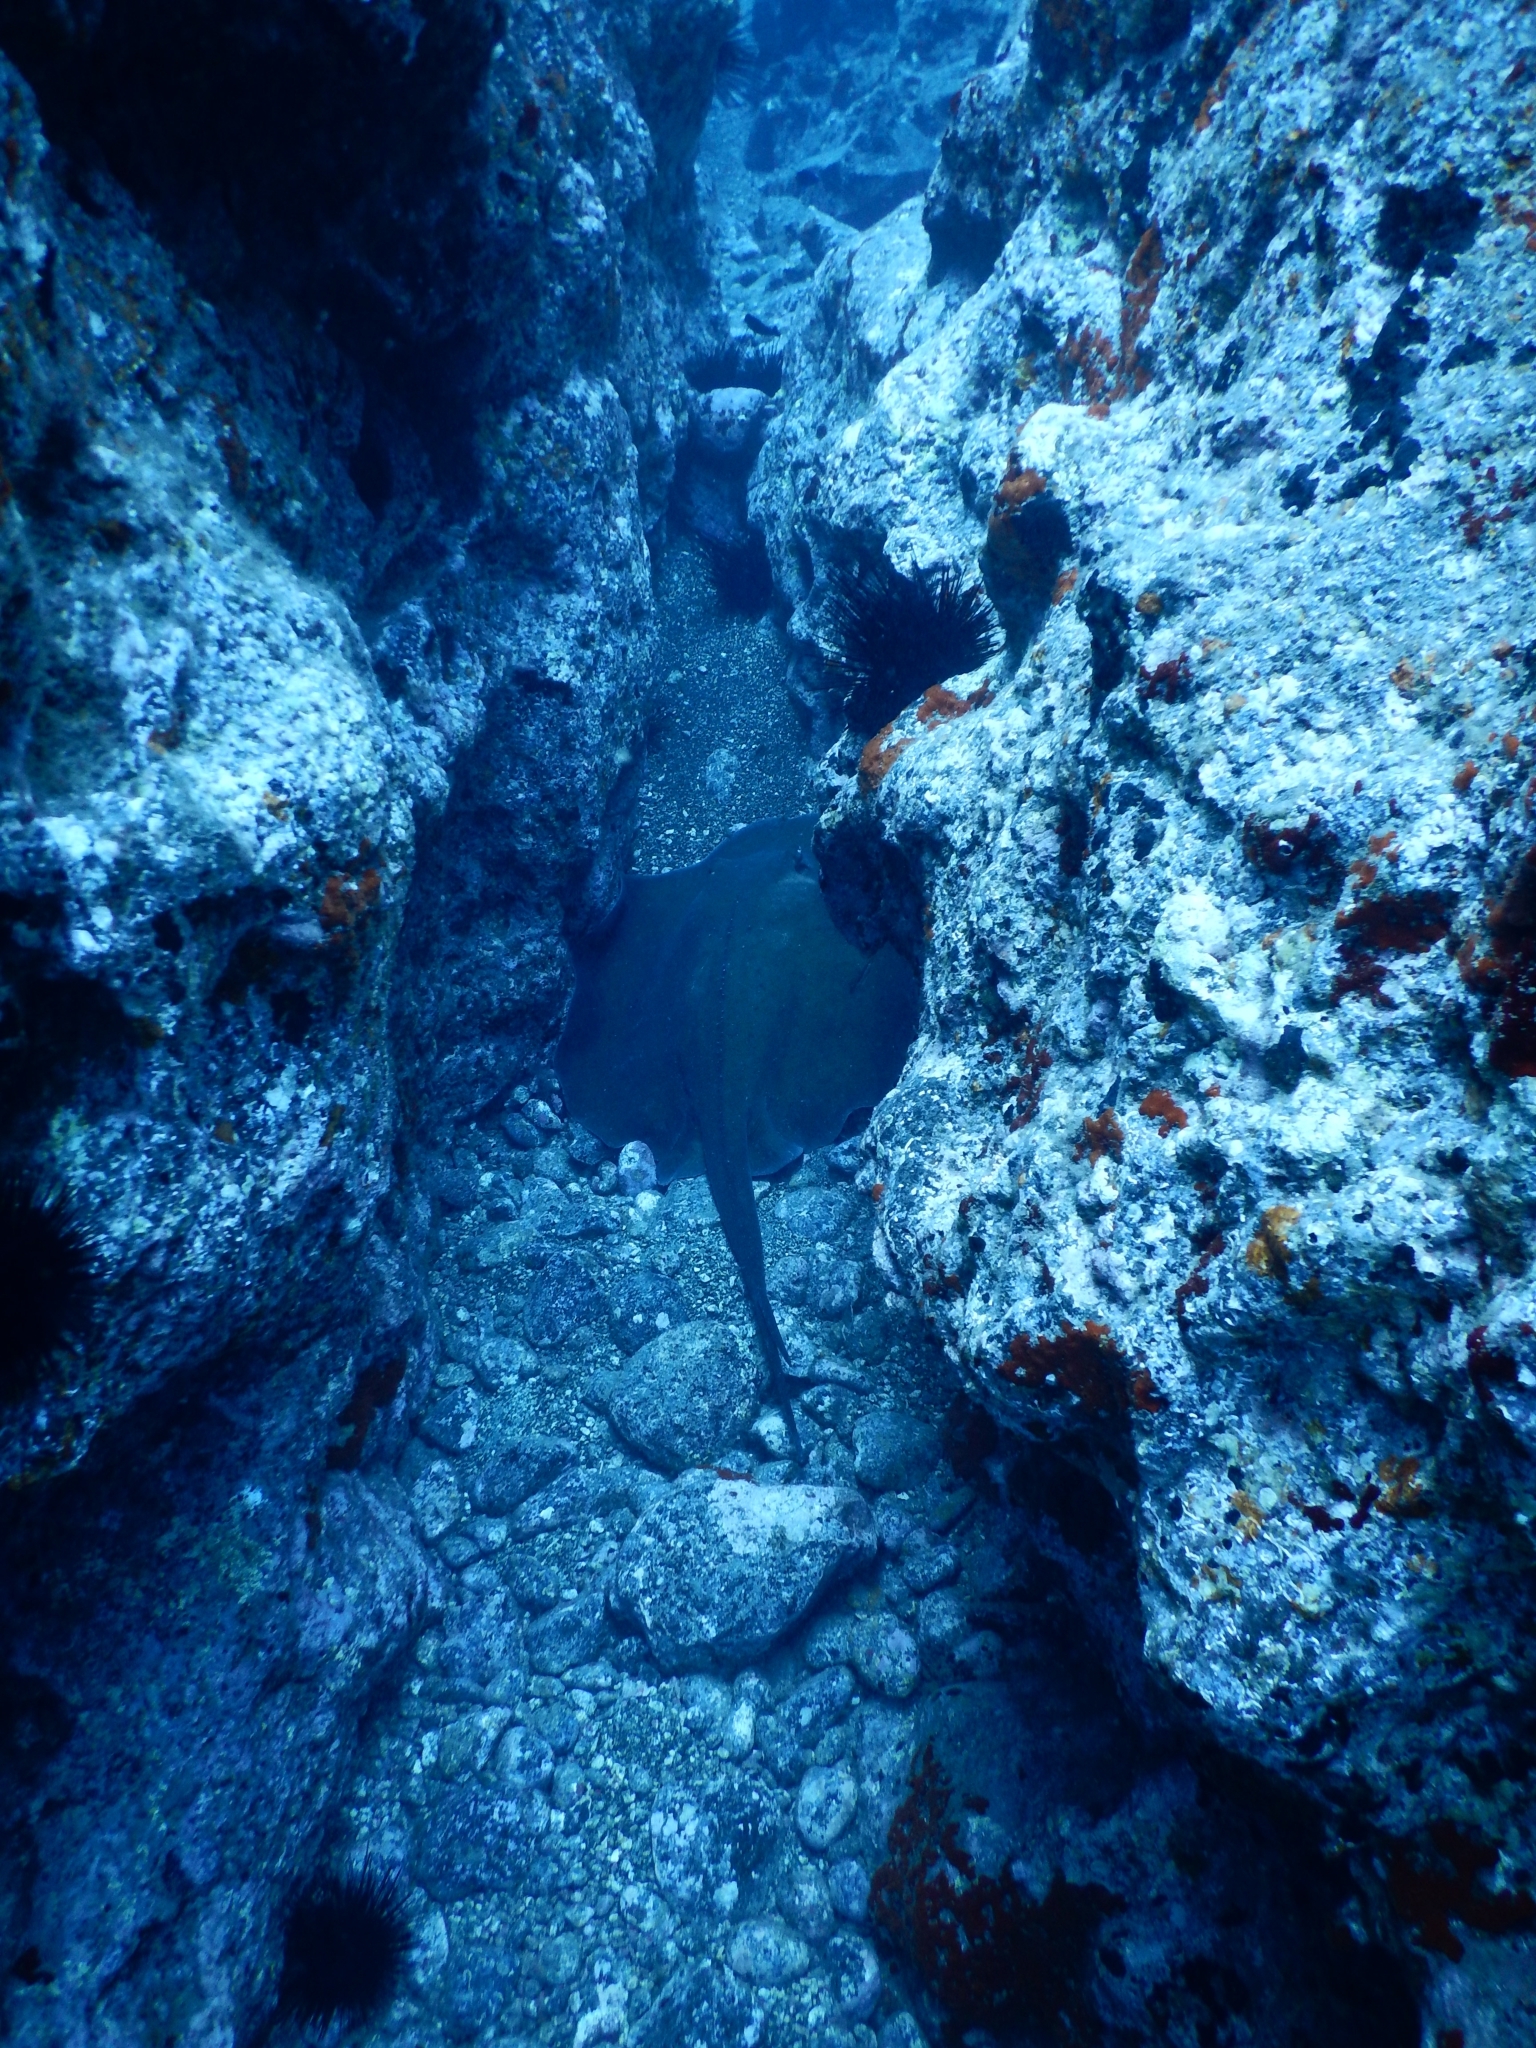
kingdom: Animalia
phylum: Chordata
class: Elasmobranchii
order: Myliobatiformes
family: Dasyatidae
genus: Taeniura
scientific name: Taeniura grabata
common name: Round stingray
